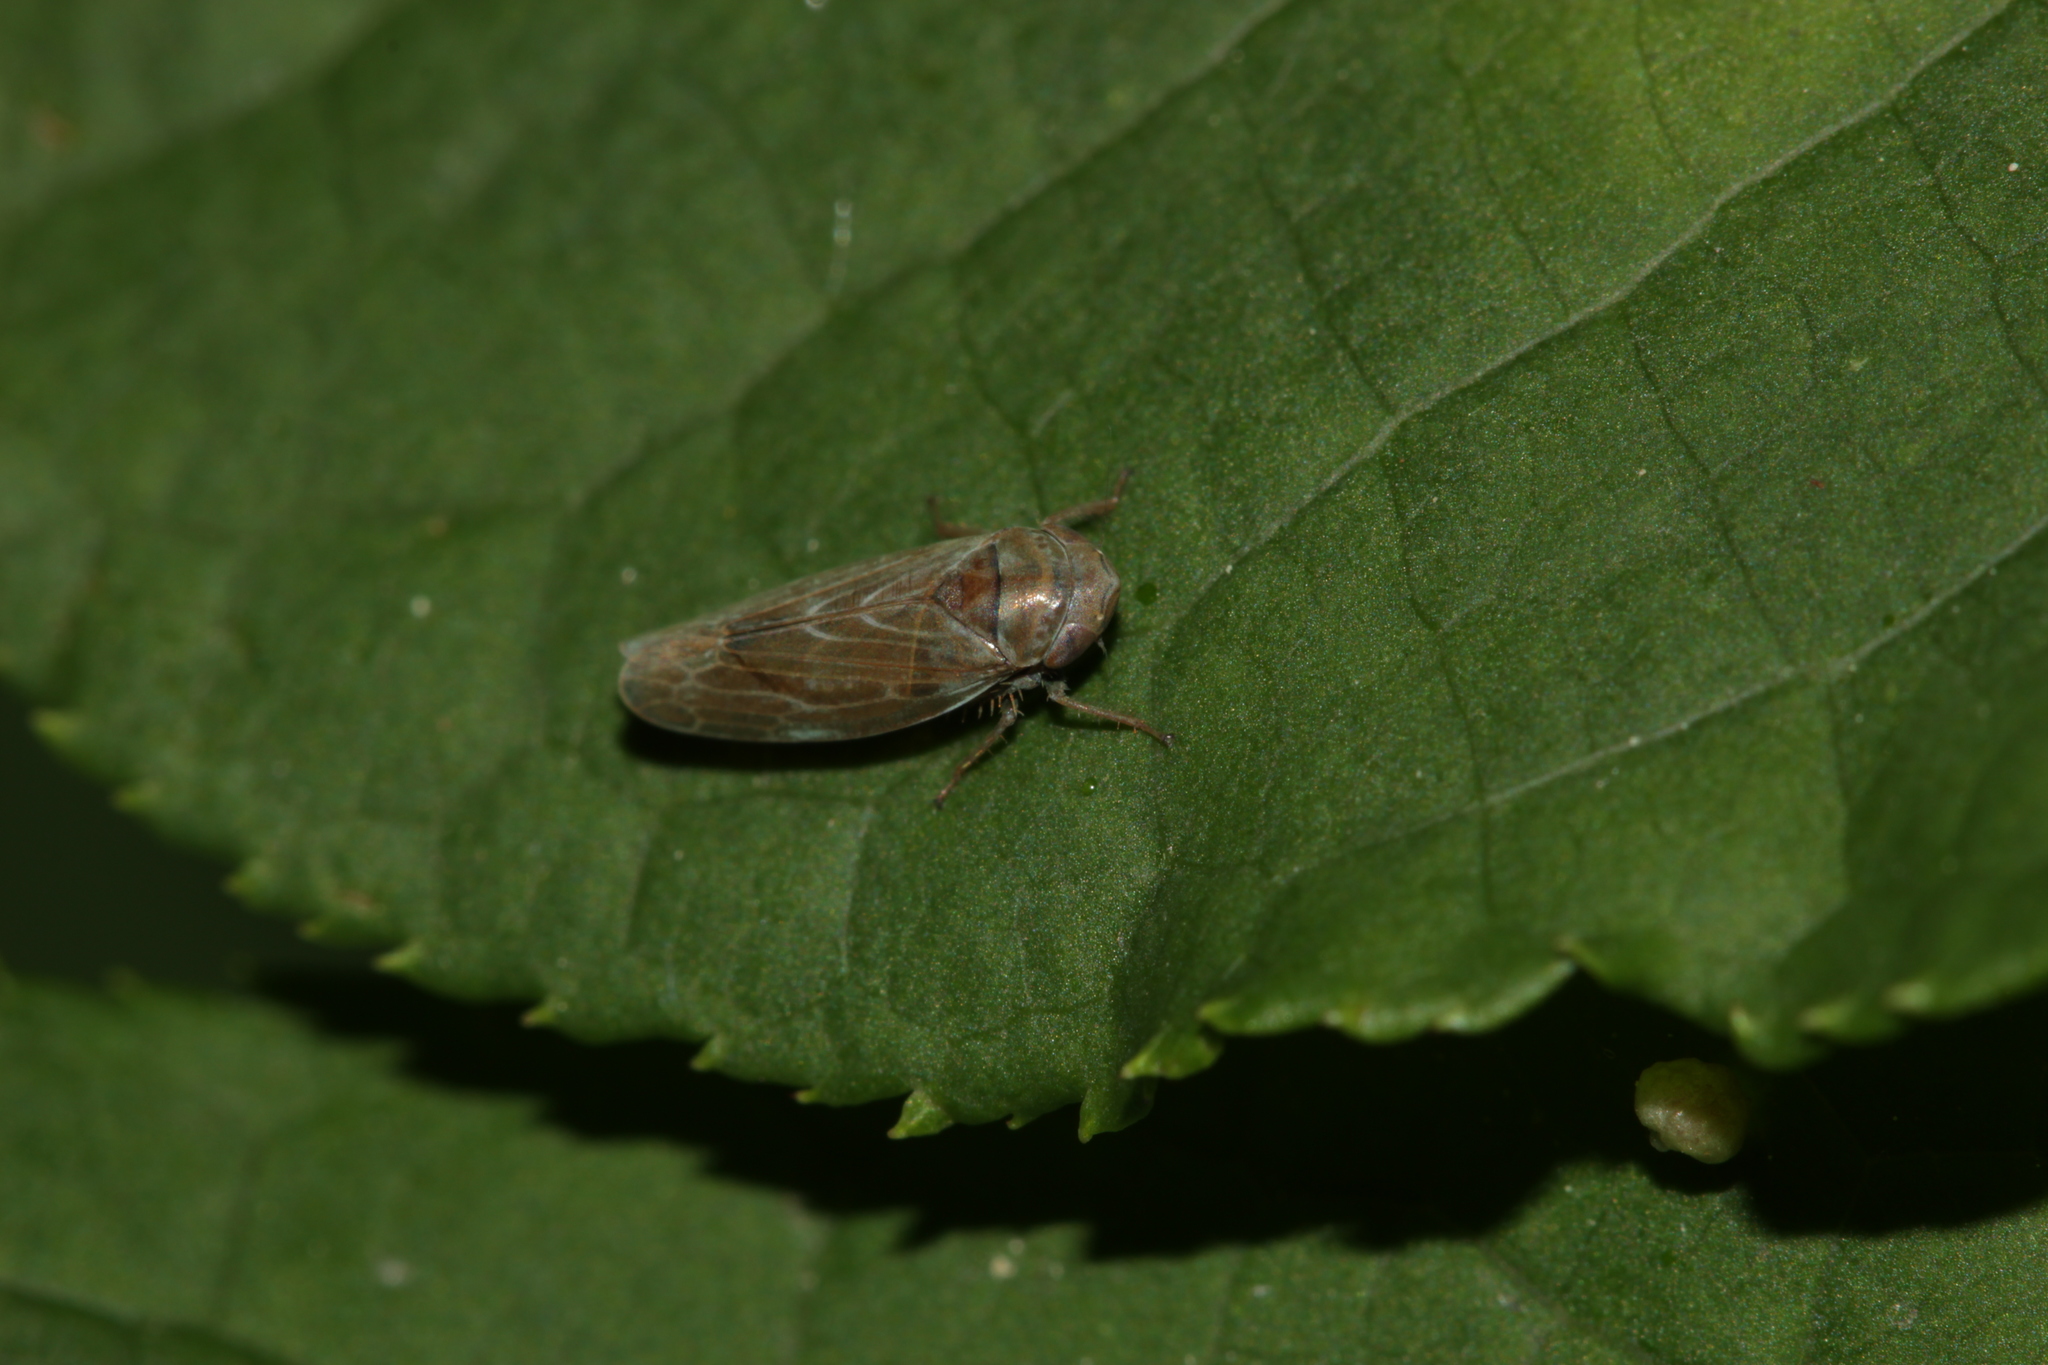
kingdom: Animalia
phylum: Arthropoda
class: Insecta
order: Hemiptera
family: Cicadellidae
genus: Speudotettix
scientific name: Speudotettix subfusculus
